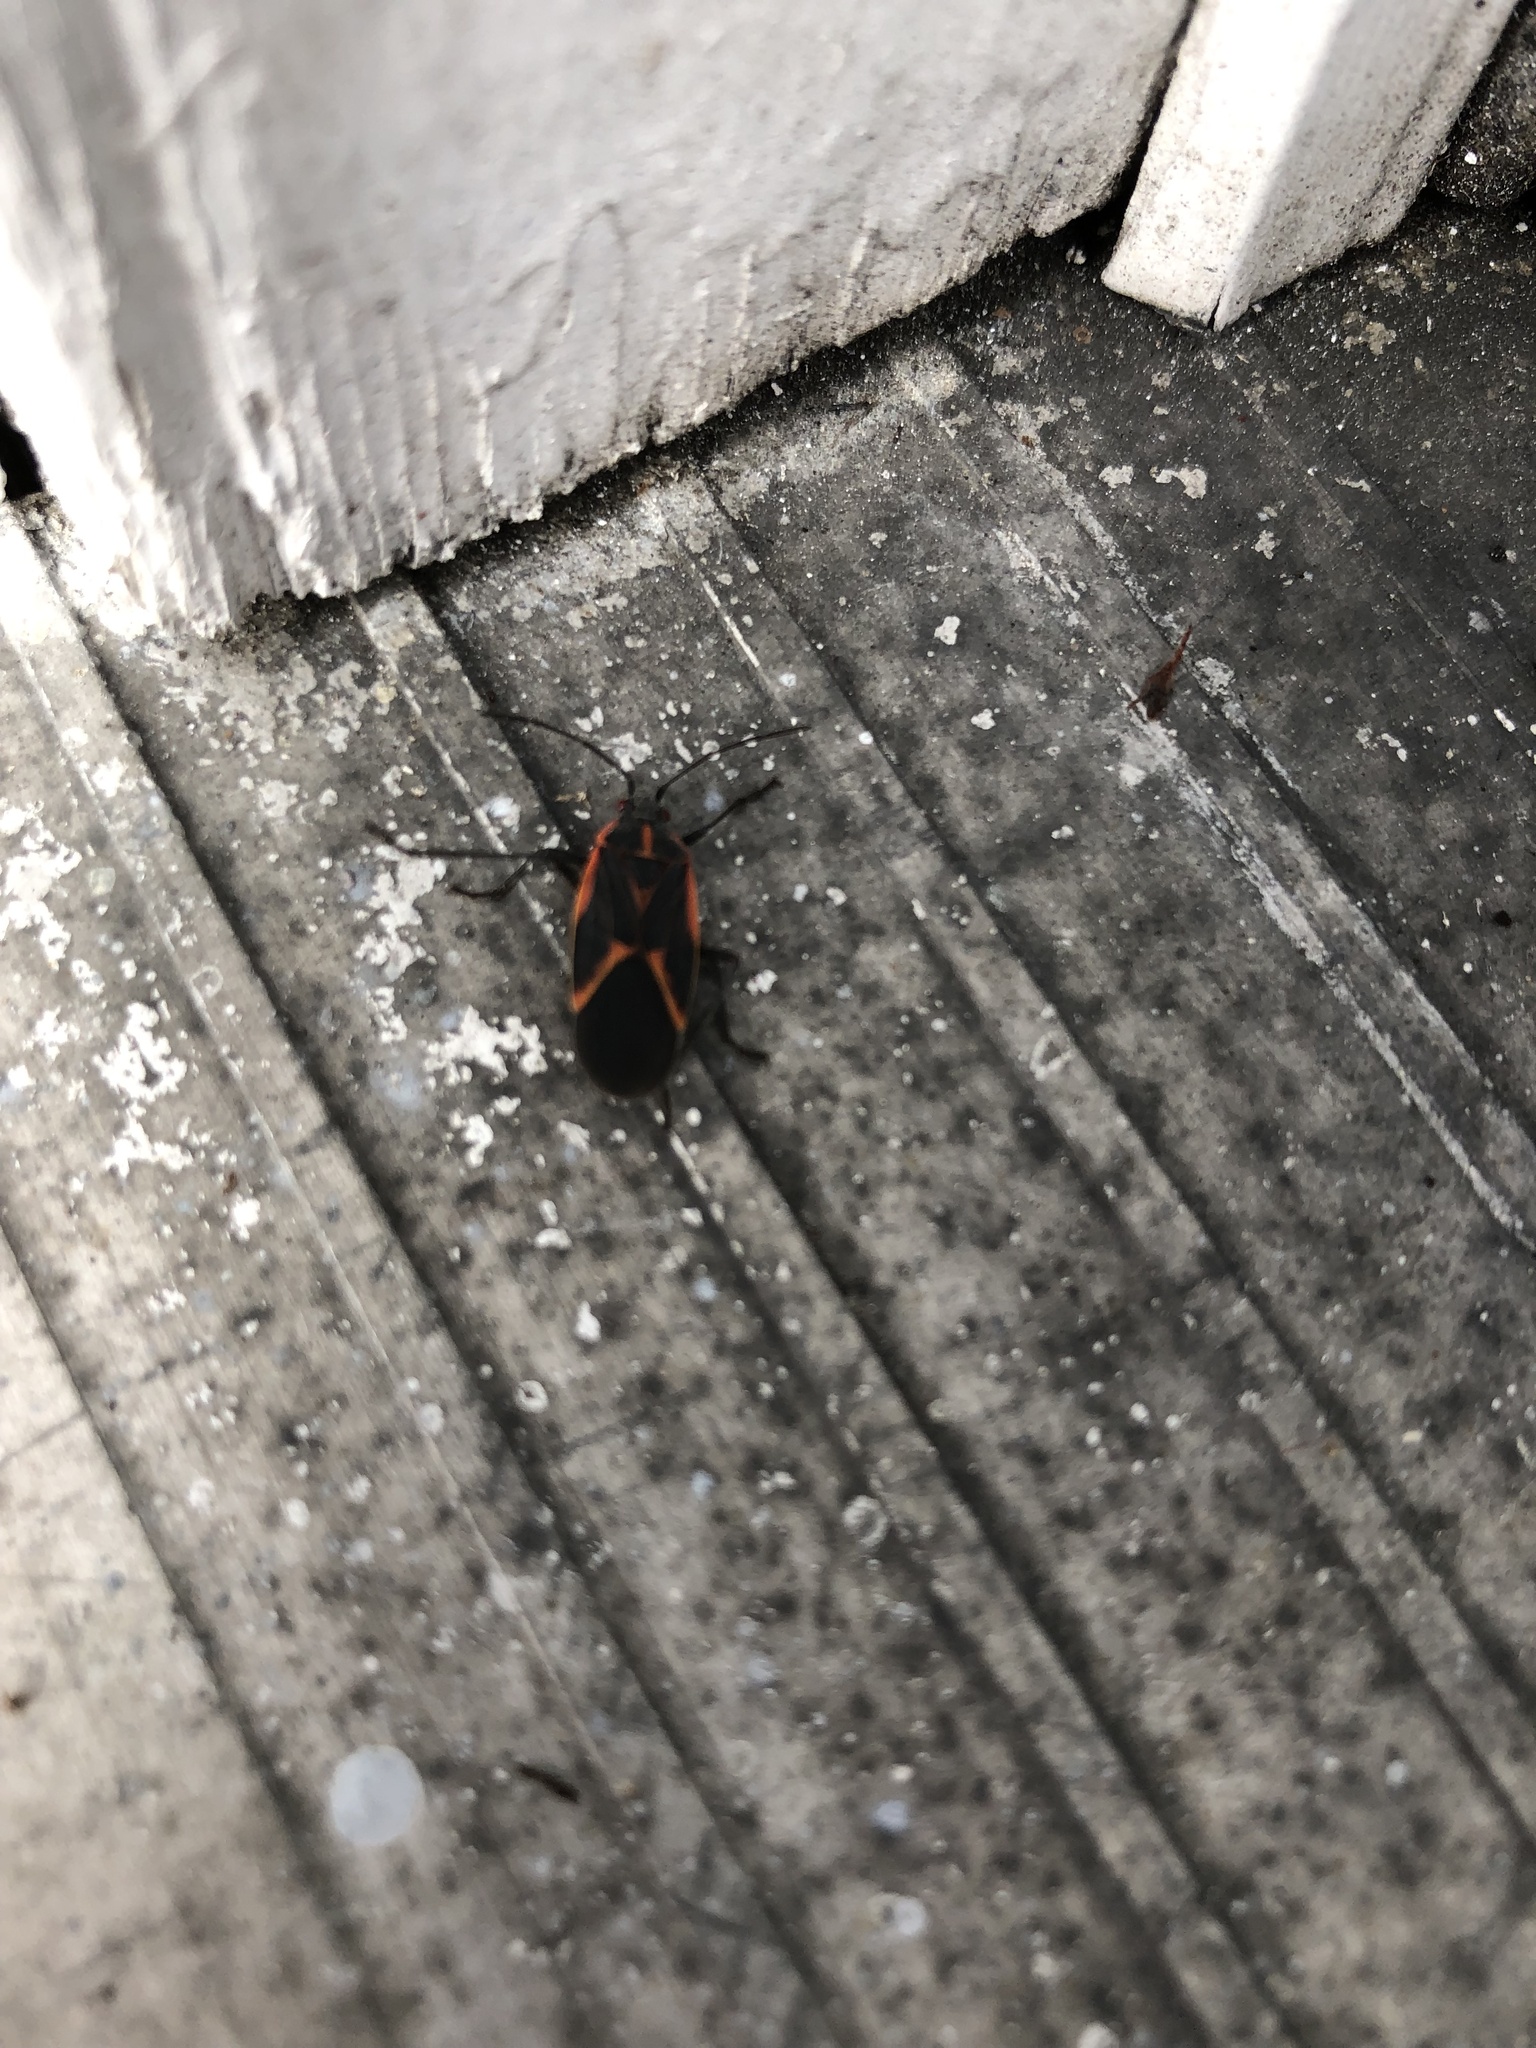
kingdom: Animalia
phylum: Arthropoda
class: Insecta
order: Hemiptera
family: Rhopalidae
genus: Boisea
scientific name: Boisea trivittata
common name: Boxelder bug
